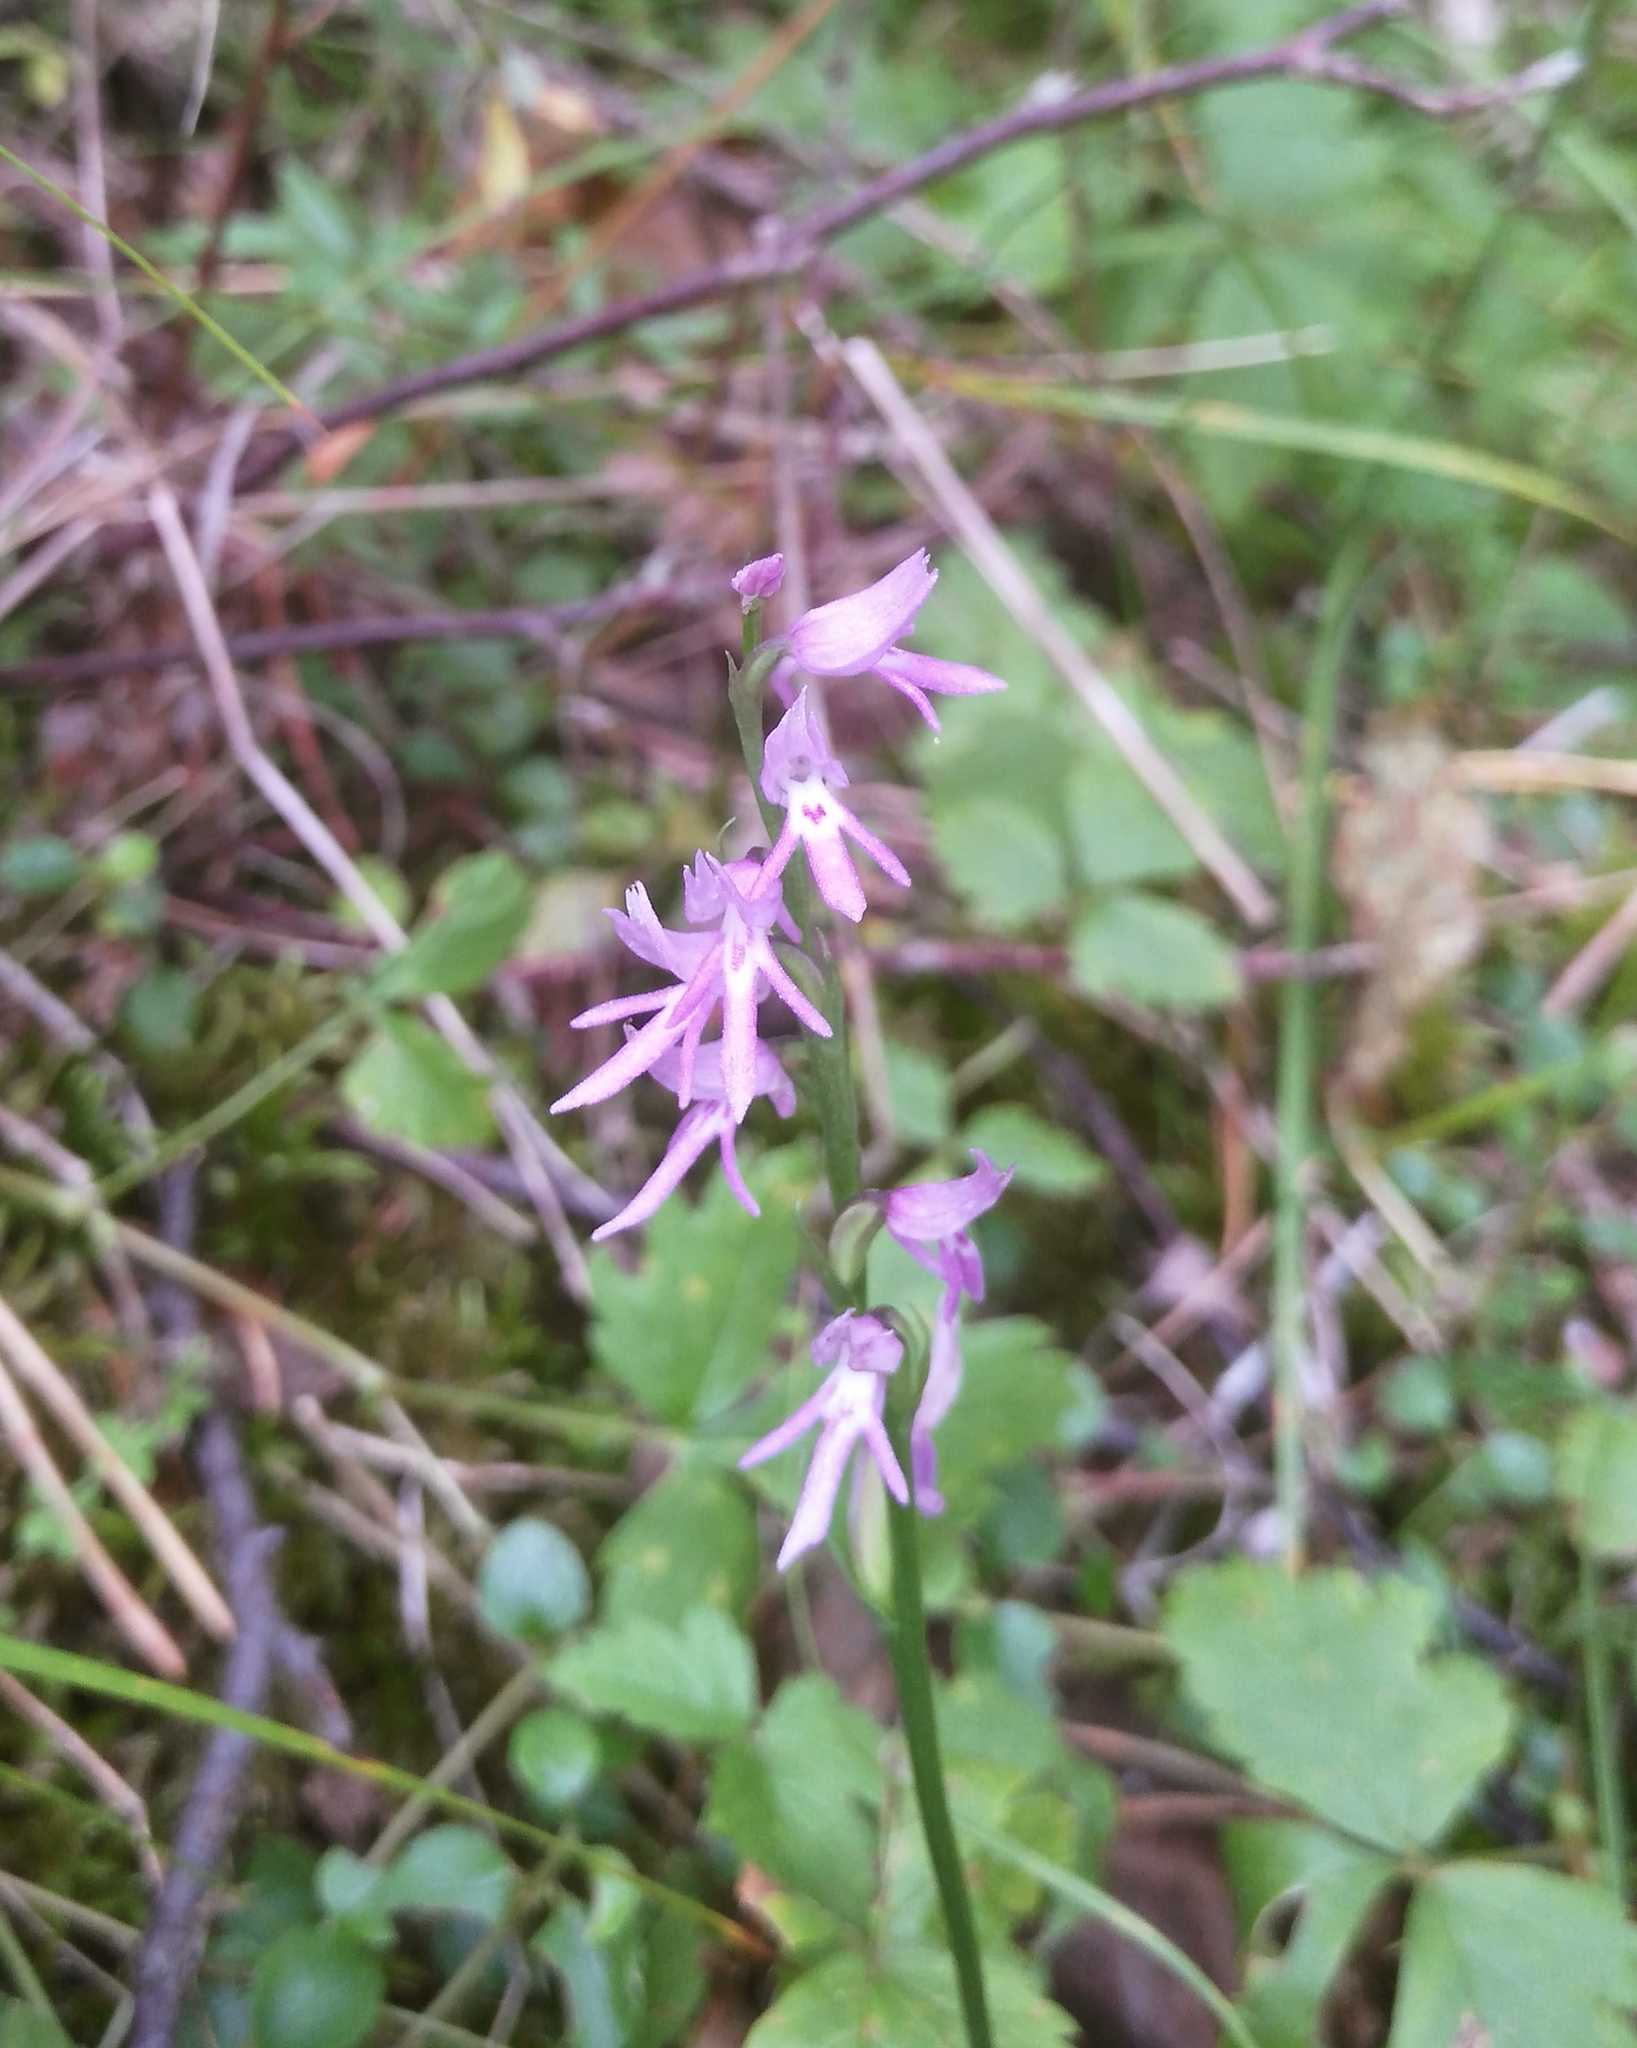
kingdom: Plantae
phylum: Tracheophyta
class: Liliopsida
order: Asparagales
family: Orchidaceae
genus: Hemipilia
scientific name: Hemipilia cucullata
